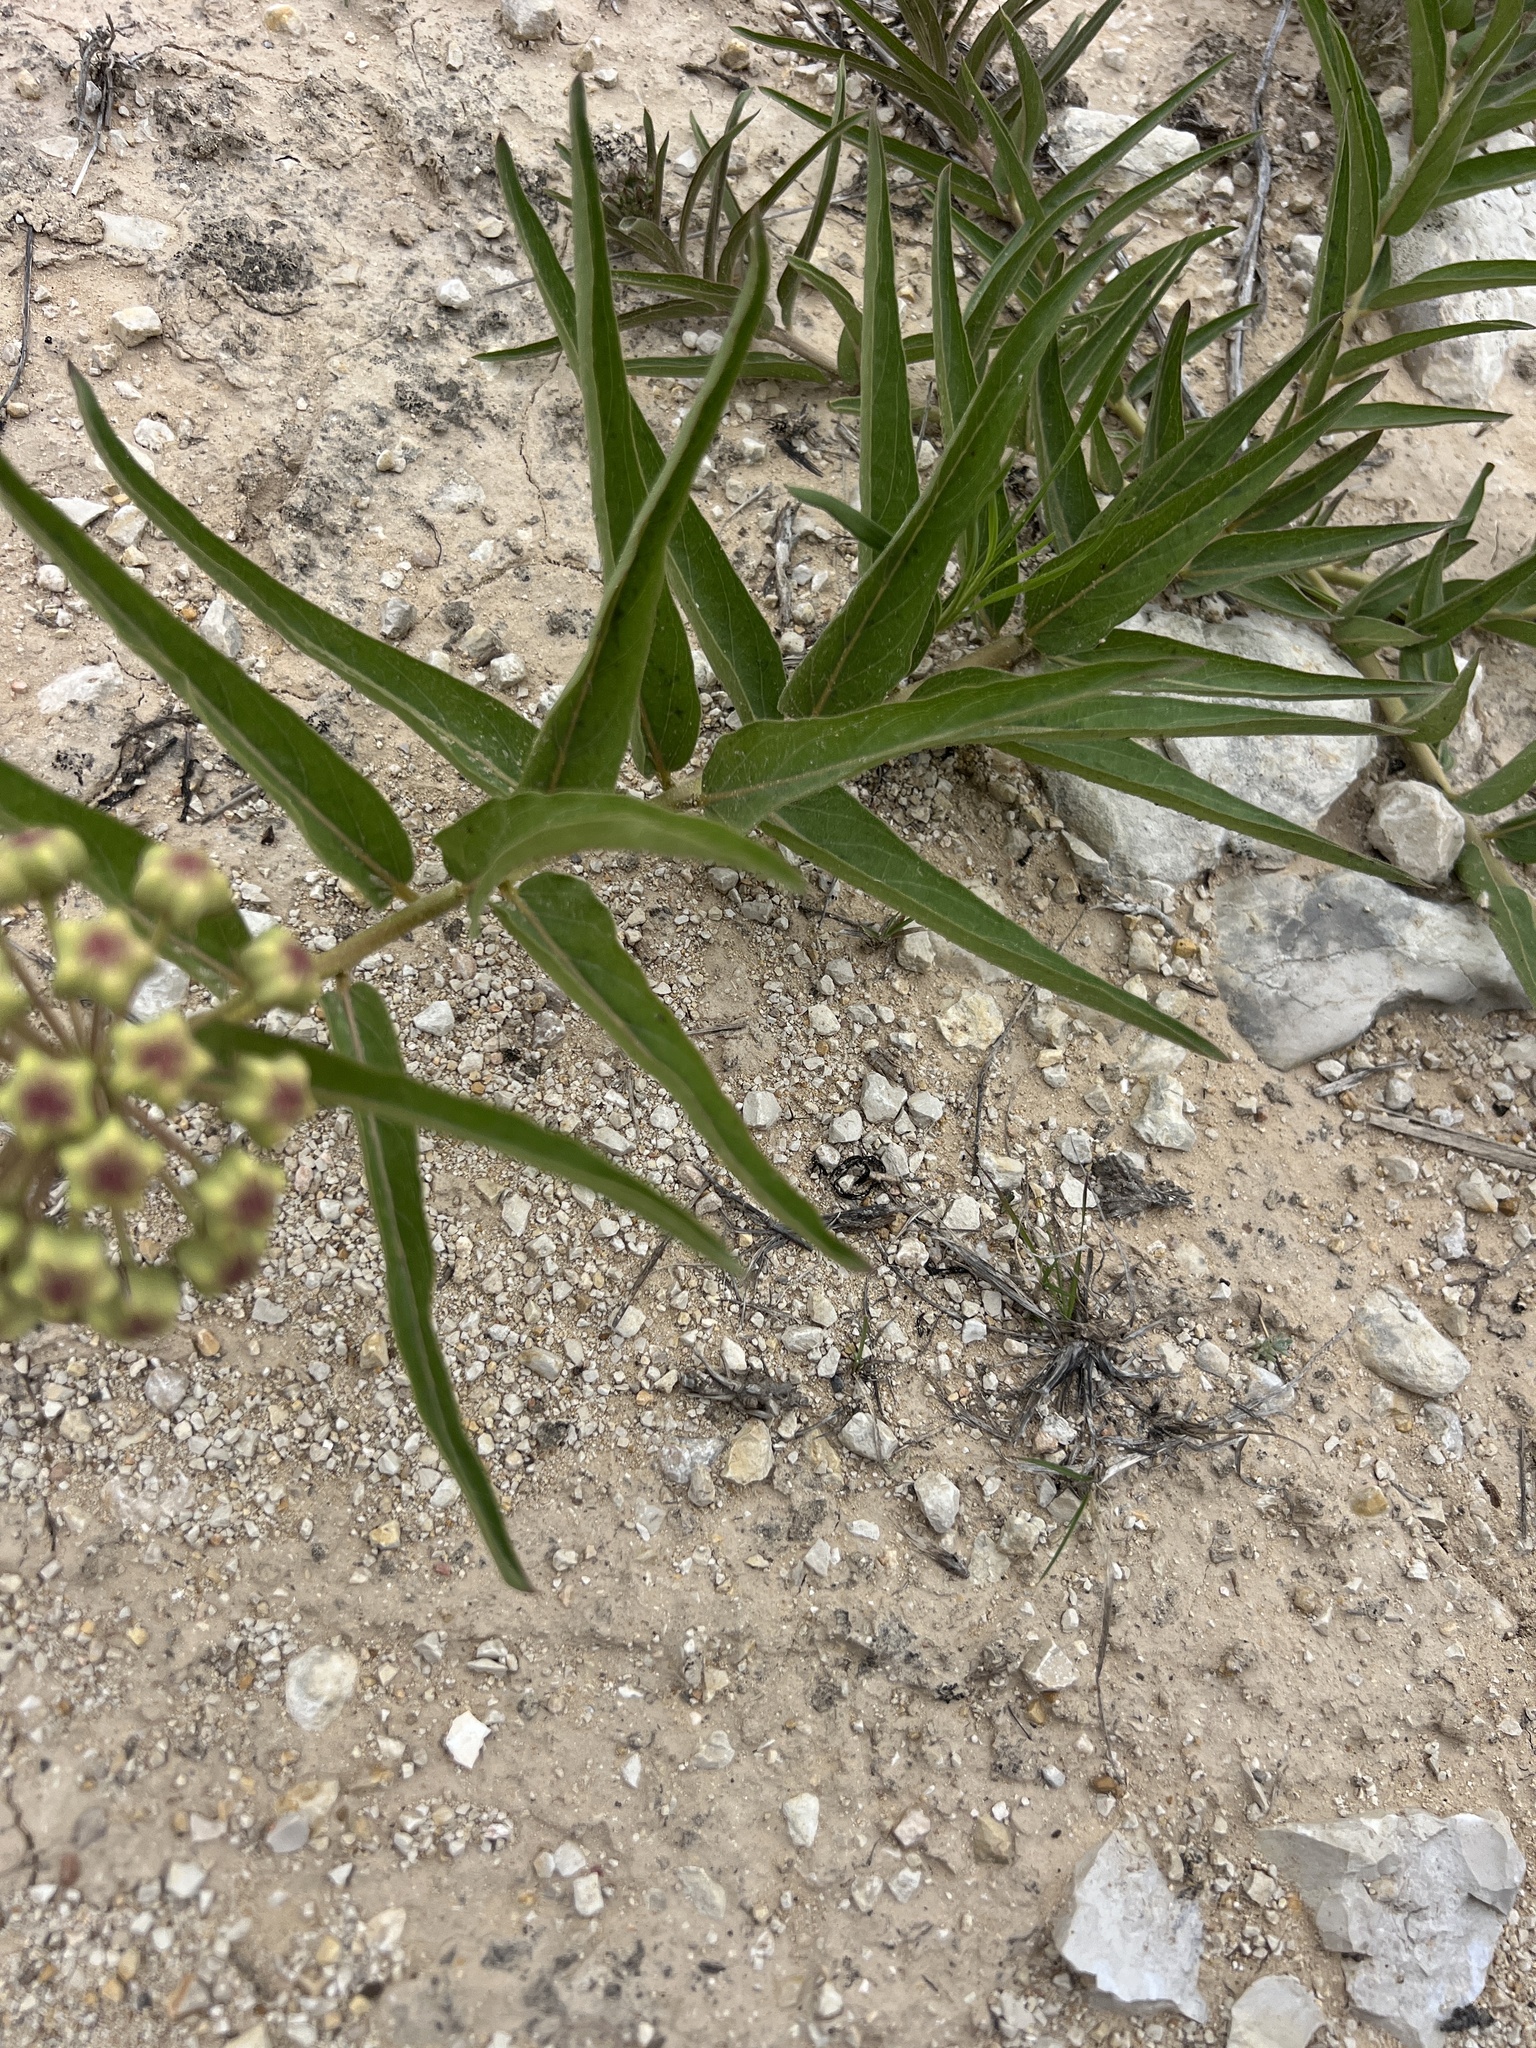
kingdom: Plantae
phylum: Tracheophyta
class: Magnoliopsida
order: Gentianales
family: Apocynaceae
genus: Asclepias
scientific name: Asclepias asperula
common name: Antelope horns
